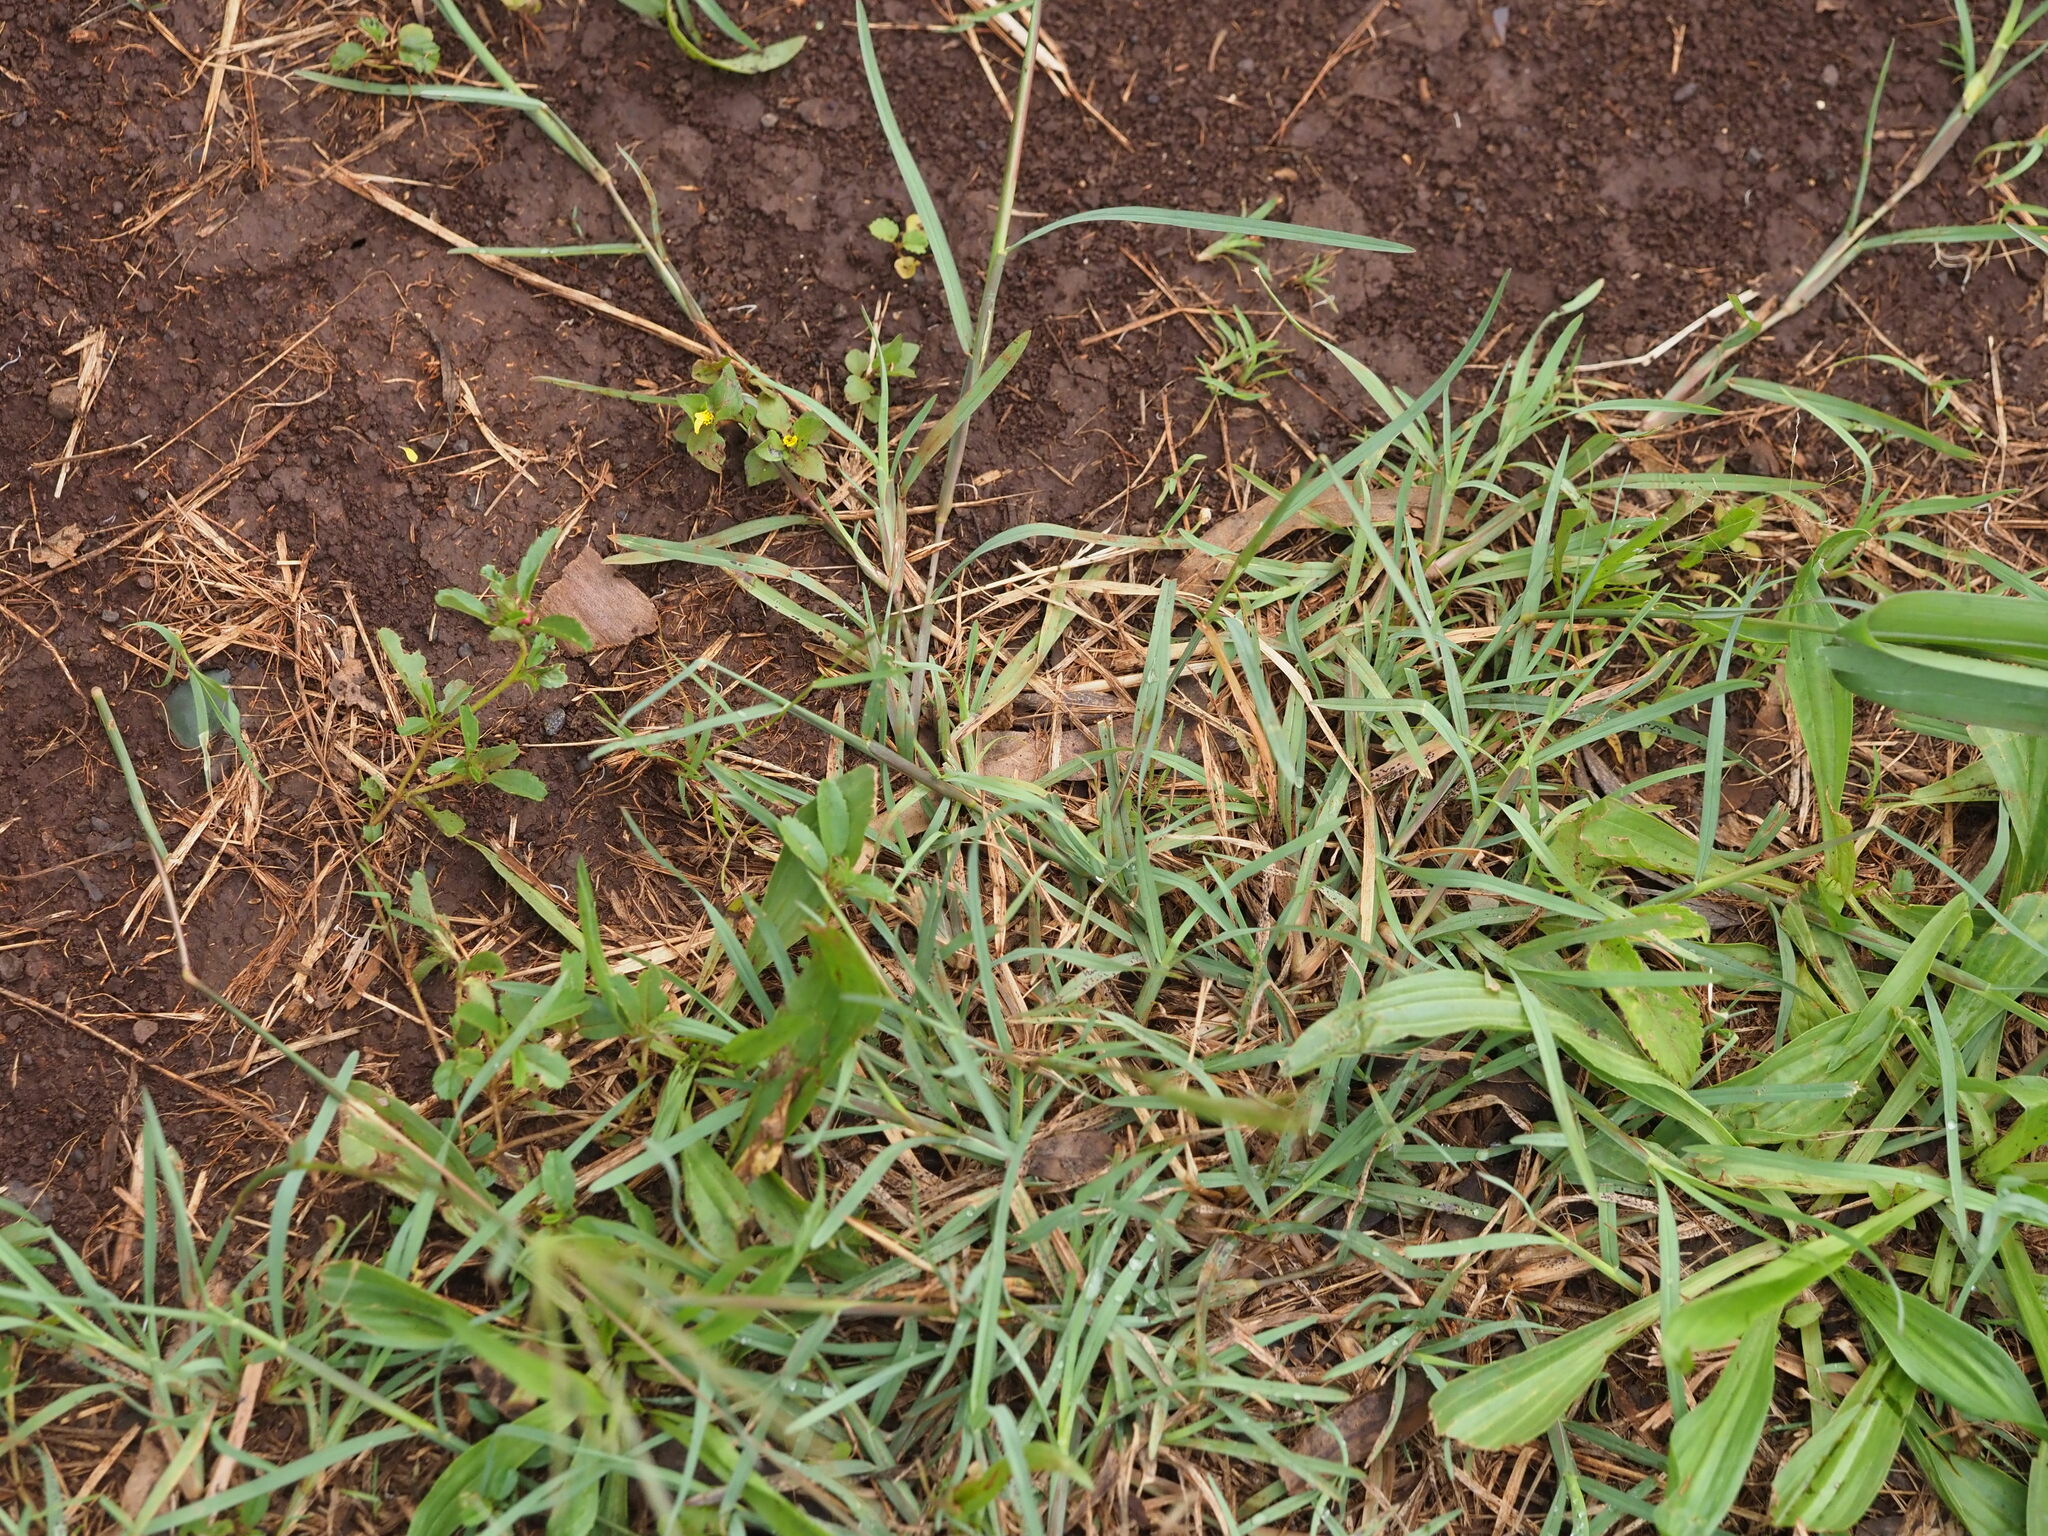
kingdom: Plantae
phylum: Tracheophyta
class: Liliopsida
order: Poales
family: Poaceae
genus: Chloris
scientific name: Chloris divaricata
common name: Spreading windmill grass
